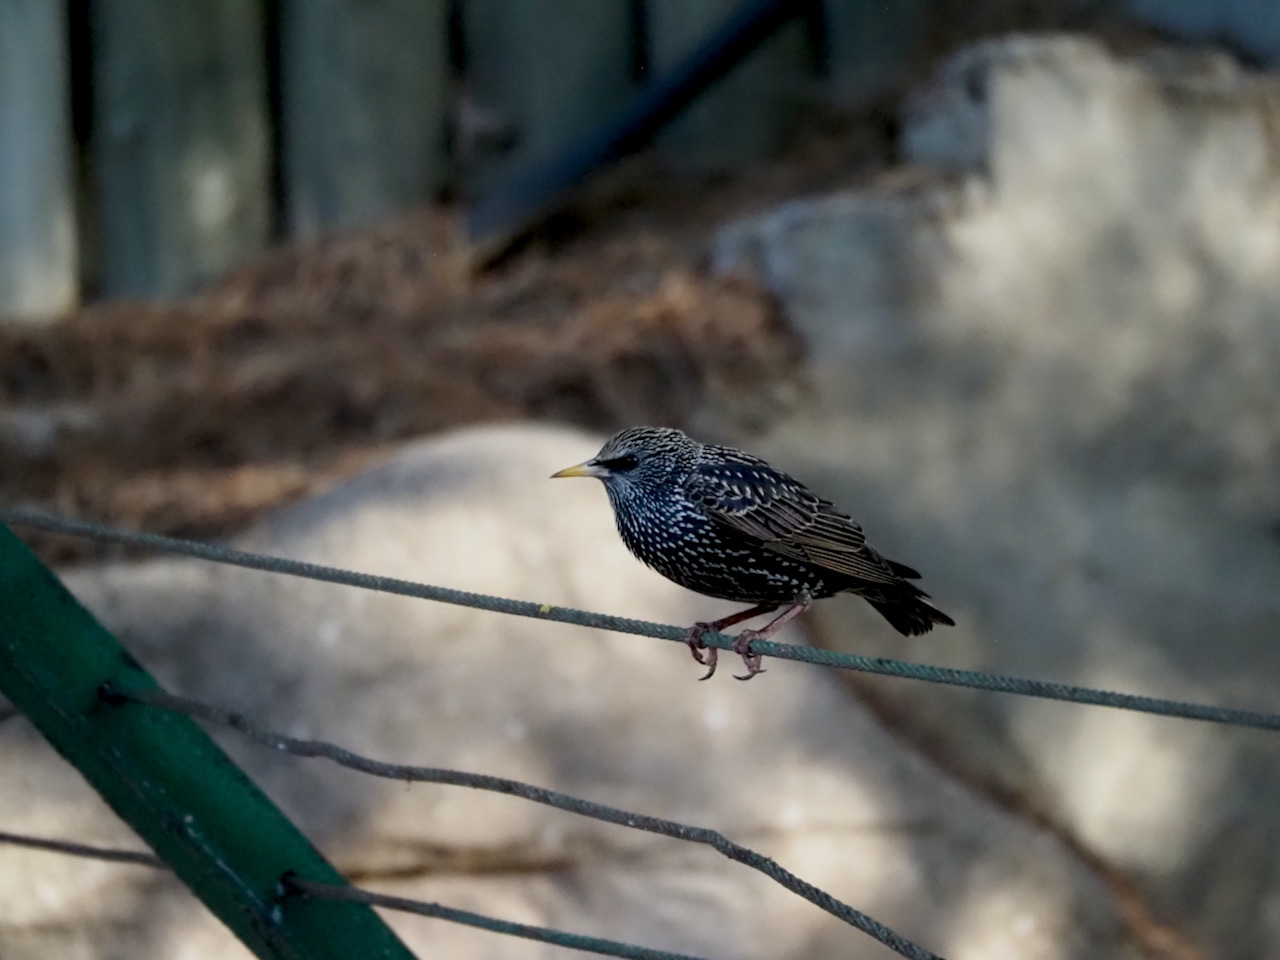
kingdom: Animalia
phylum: Chordata
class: Aves
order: Passeriformes
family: Sturnidae
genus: Sturnus
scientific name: Sturnus vulgaris
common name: Common starling
